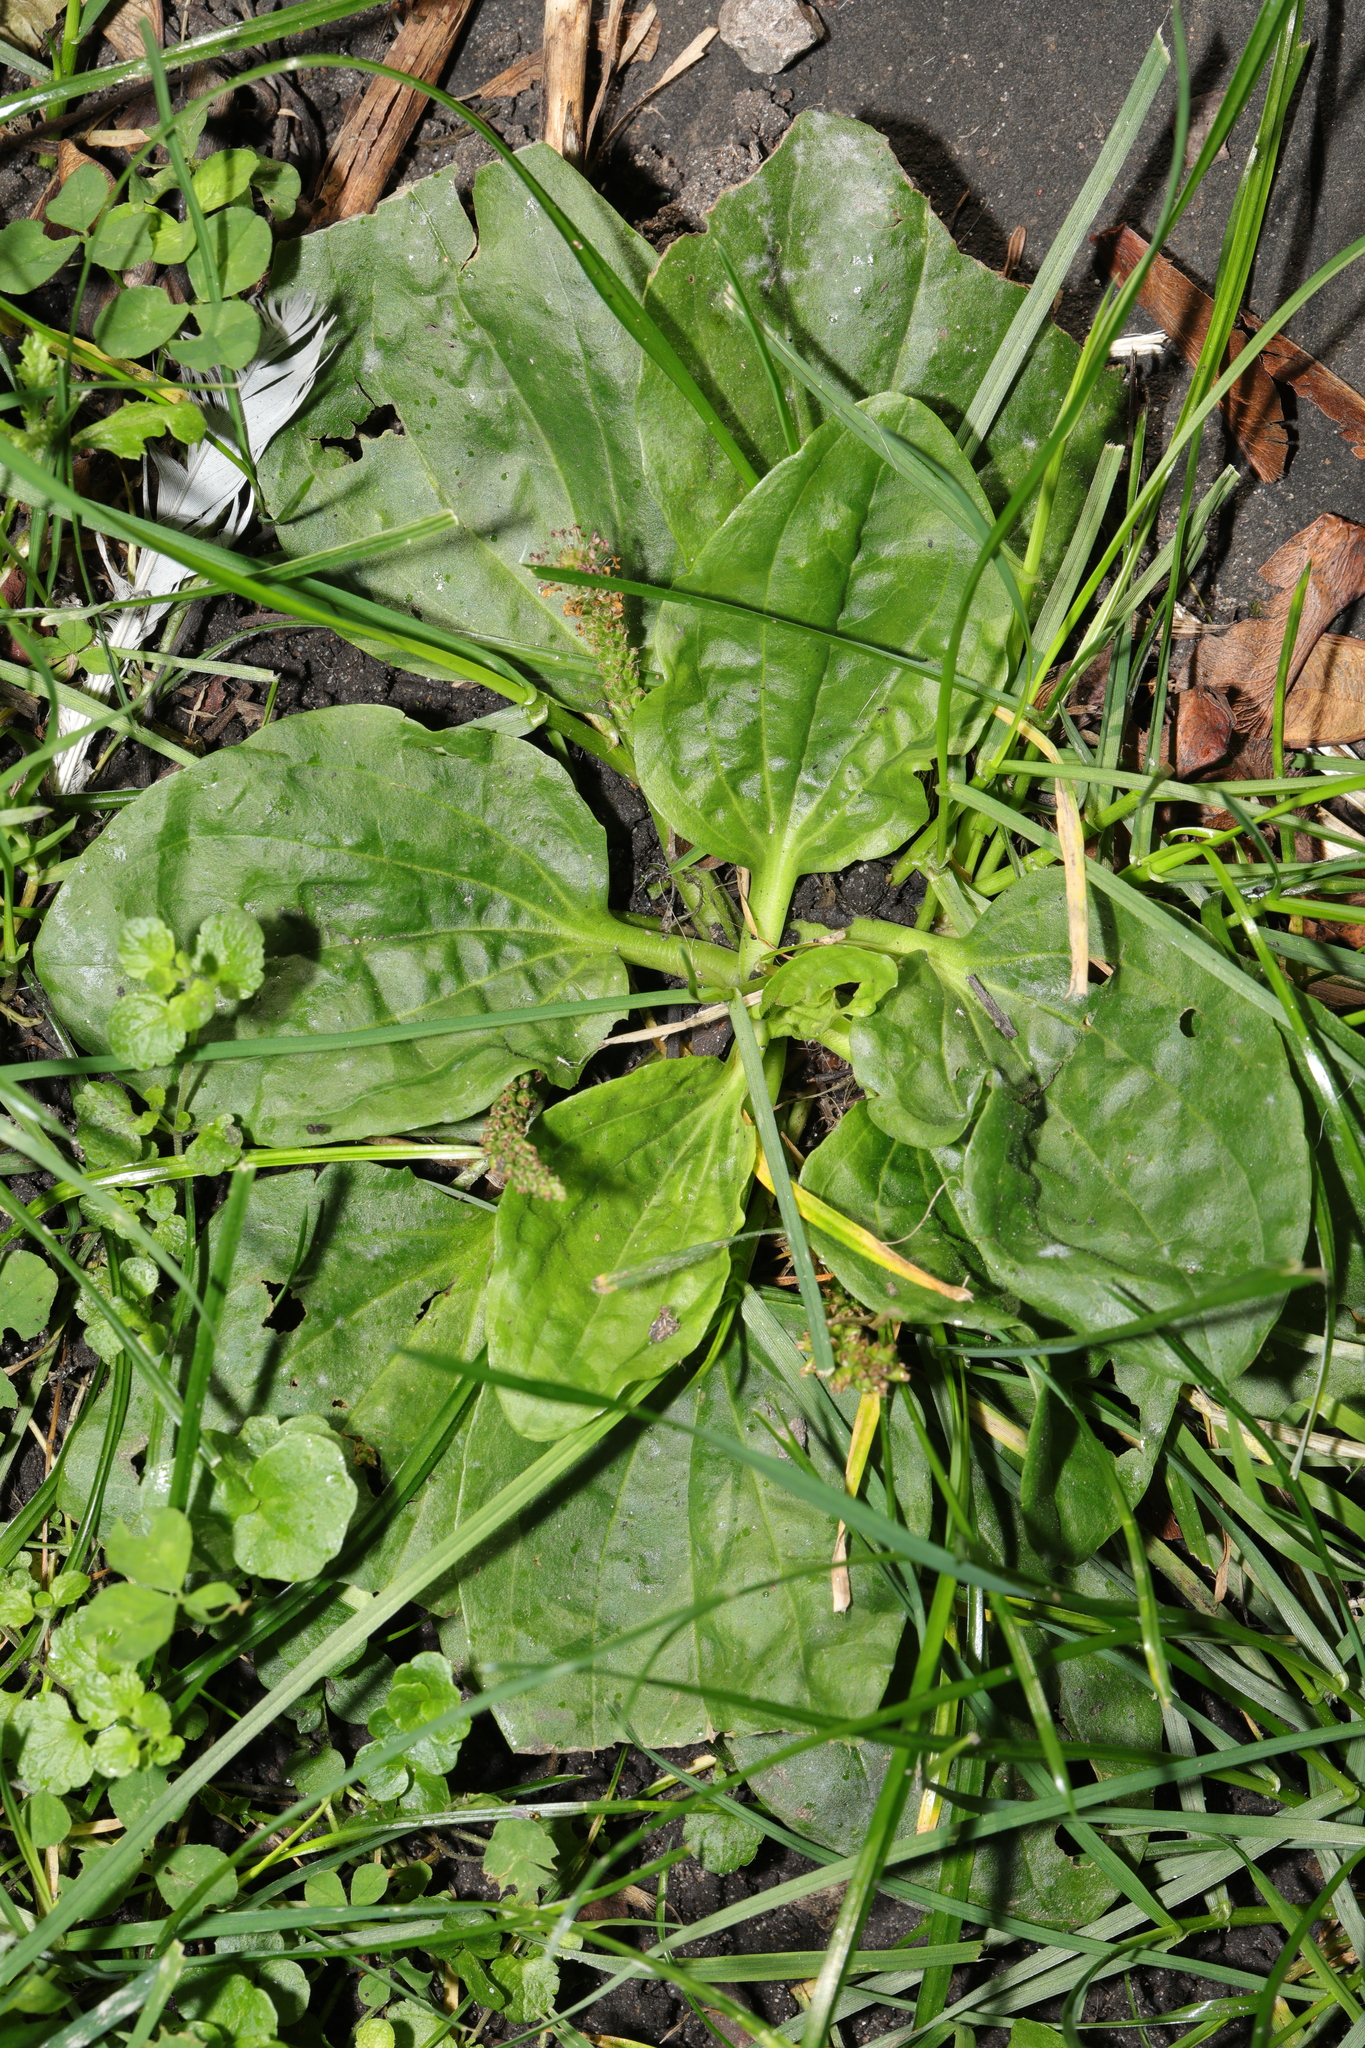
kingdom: Plantae
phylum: Tracheophyta
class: Magnoliopsida
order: Lamiales
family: Plantaginaceae
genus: Plantago
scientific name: Plantago major
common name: Common plantain
